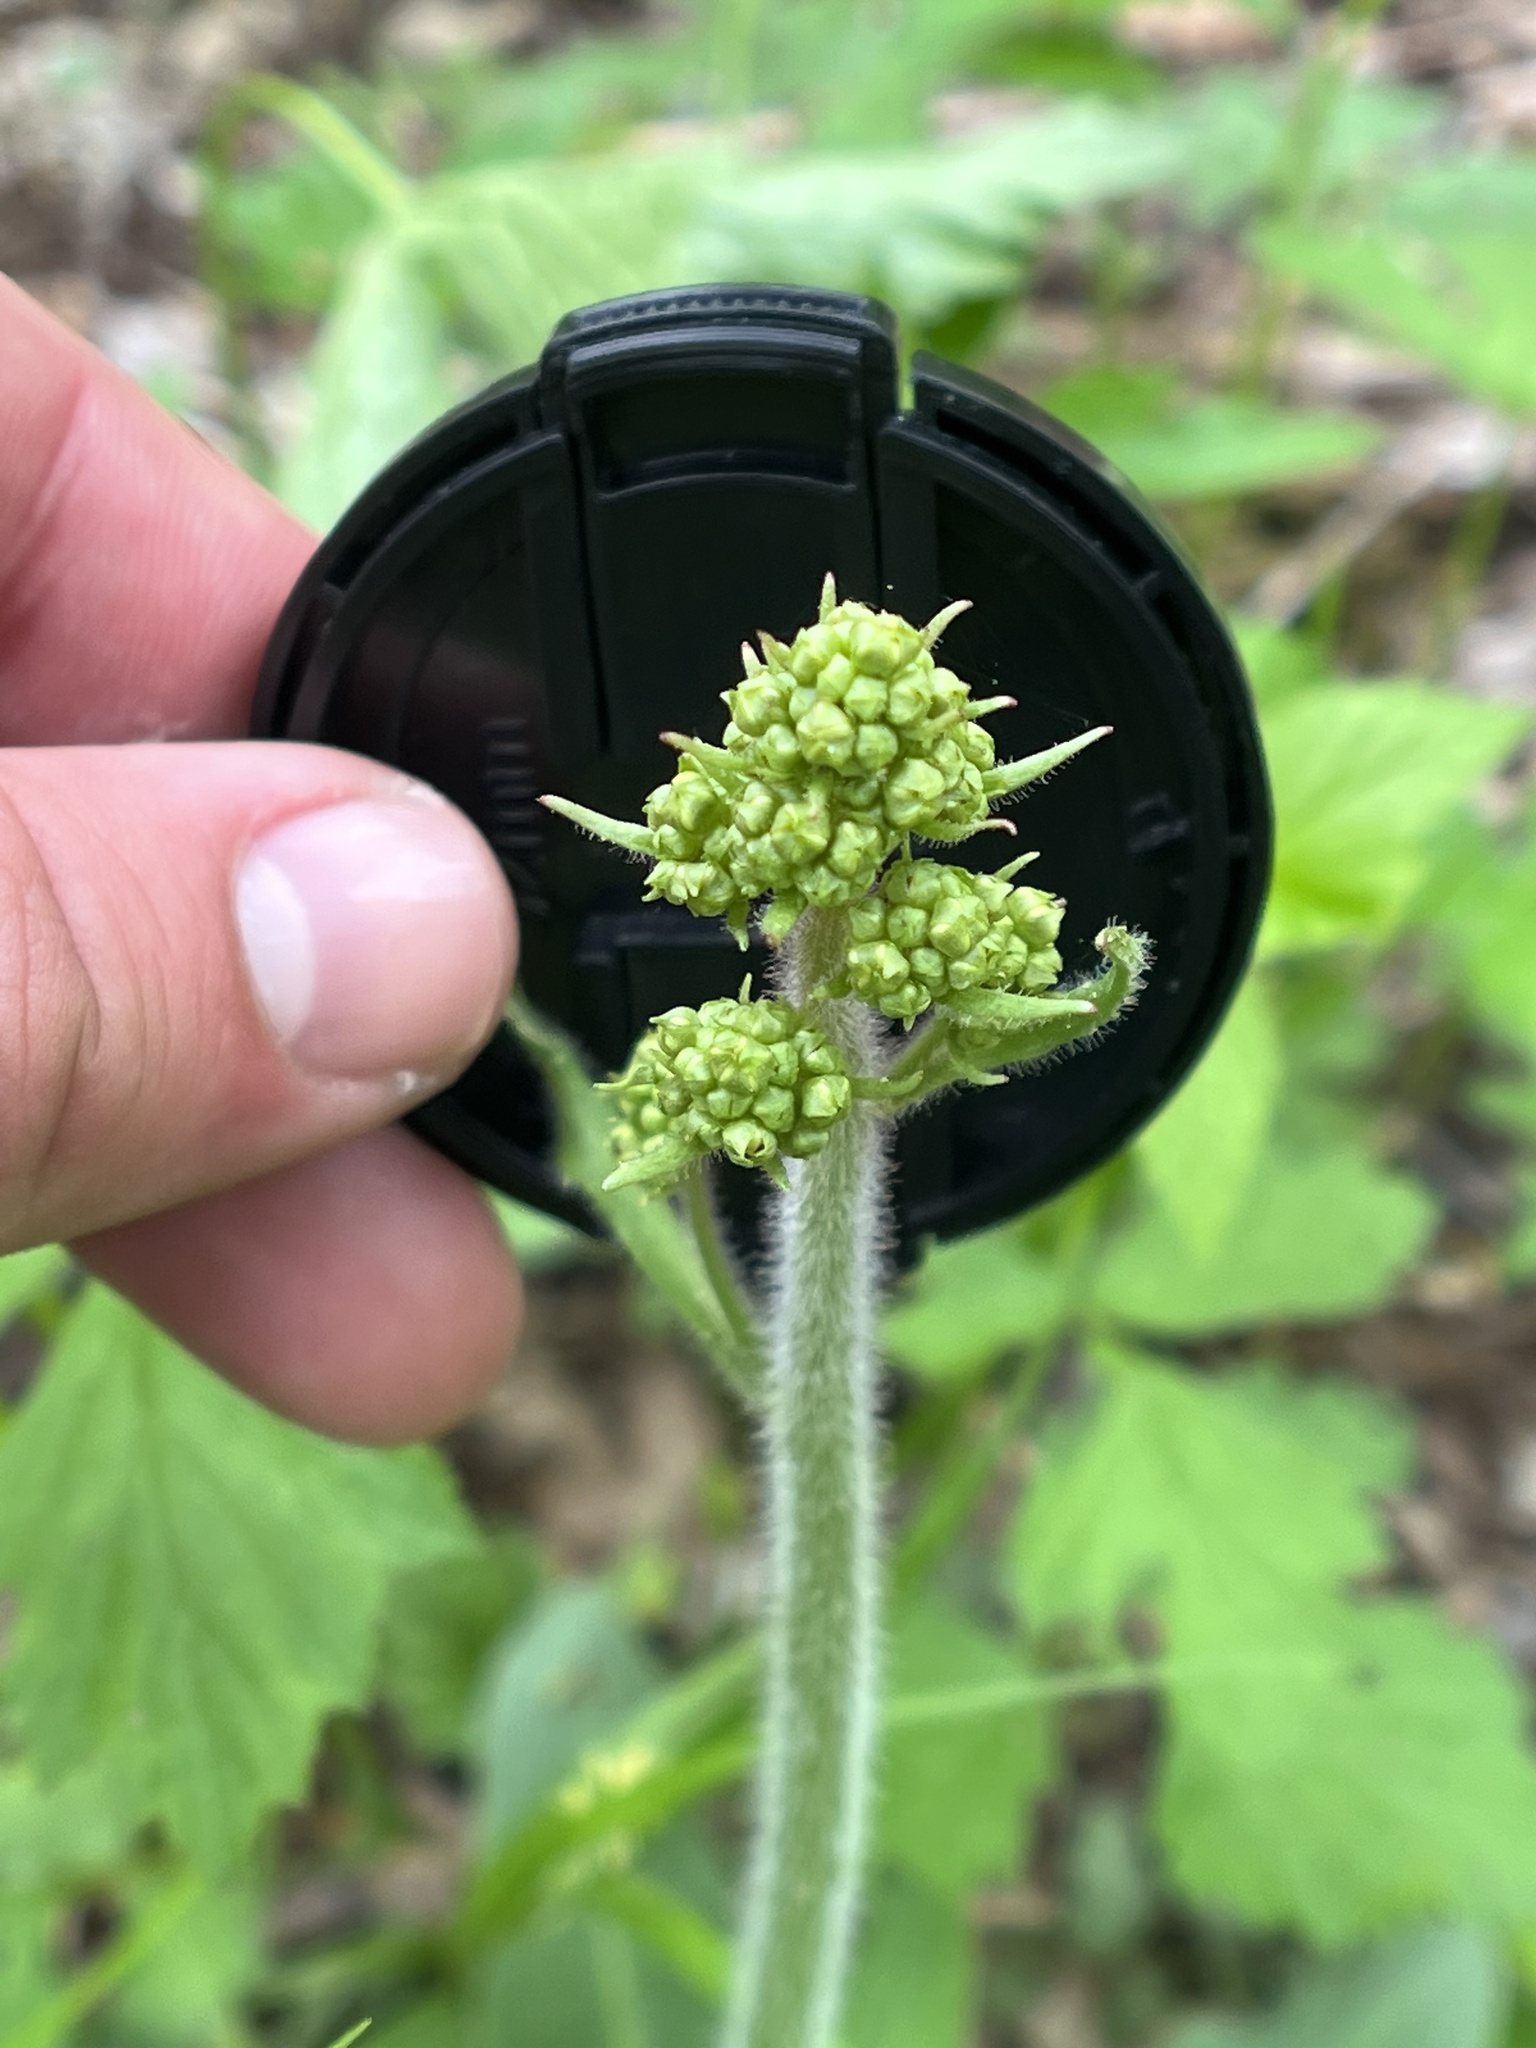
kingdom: Plantae
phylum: Tracheophyta
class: Magnoliopsida
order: Saxifragales
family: Saxifragaceae
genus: Micranthes
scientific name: Micranthes pensylvanica
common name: Marsh saxifrage
